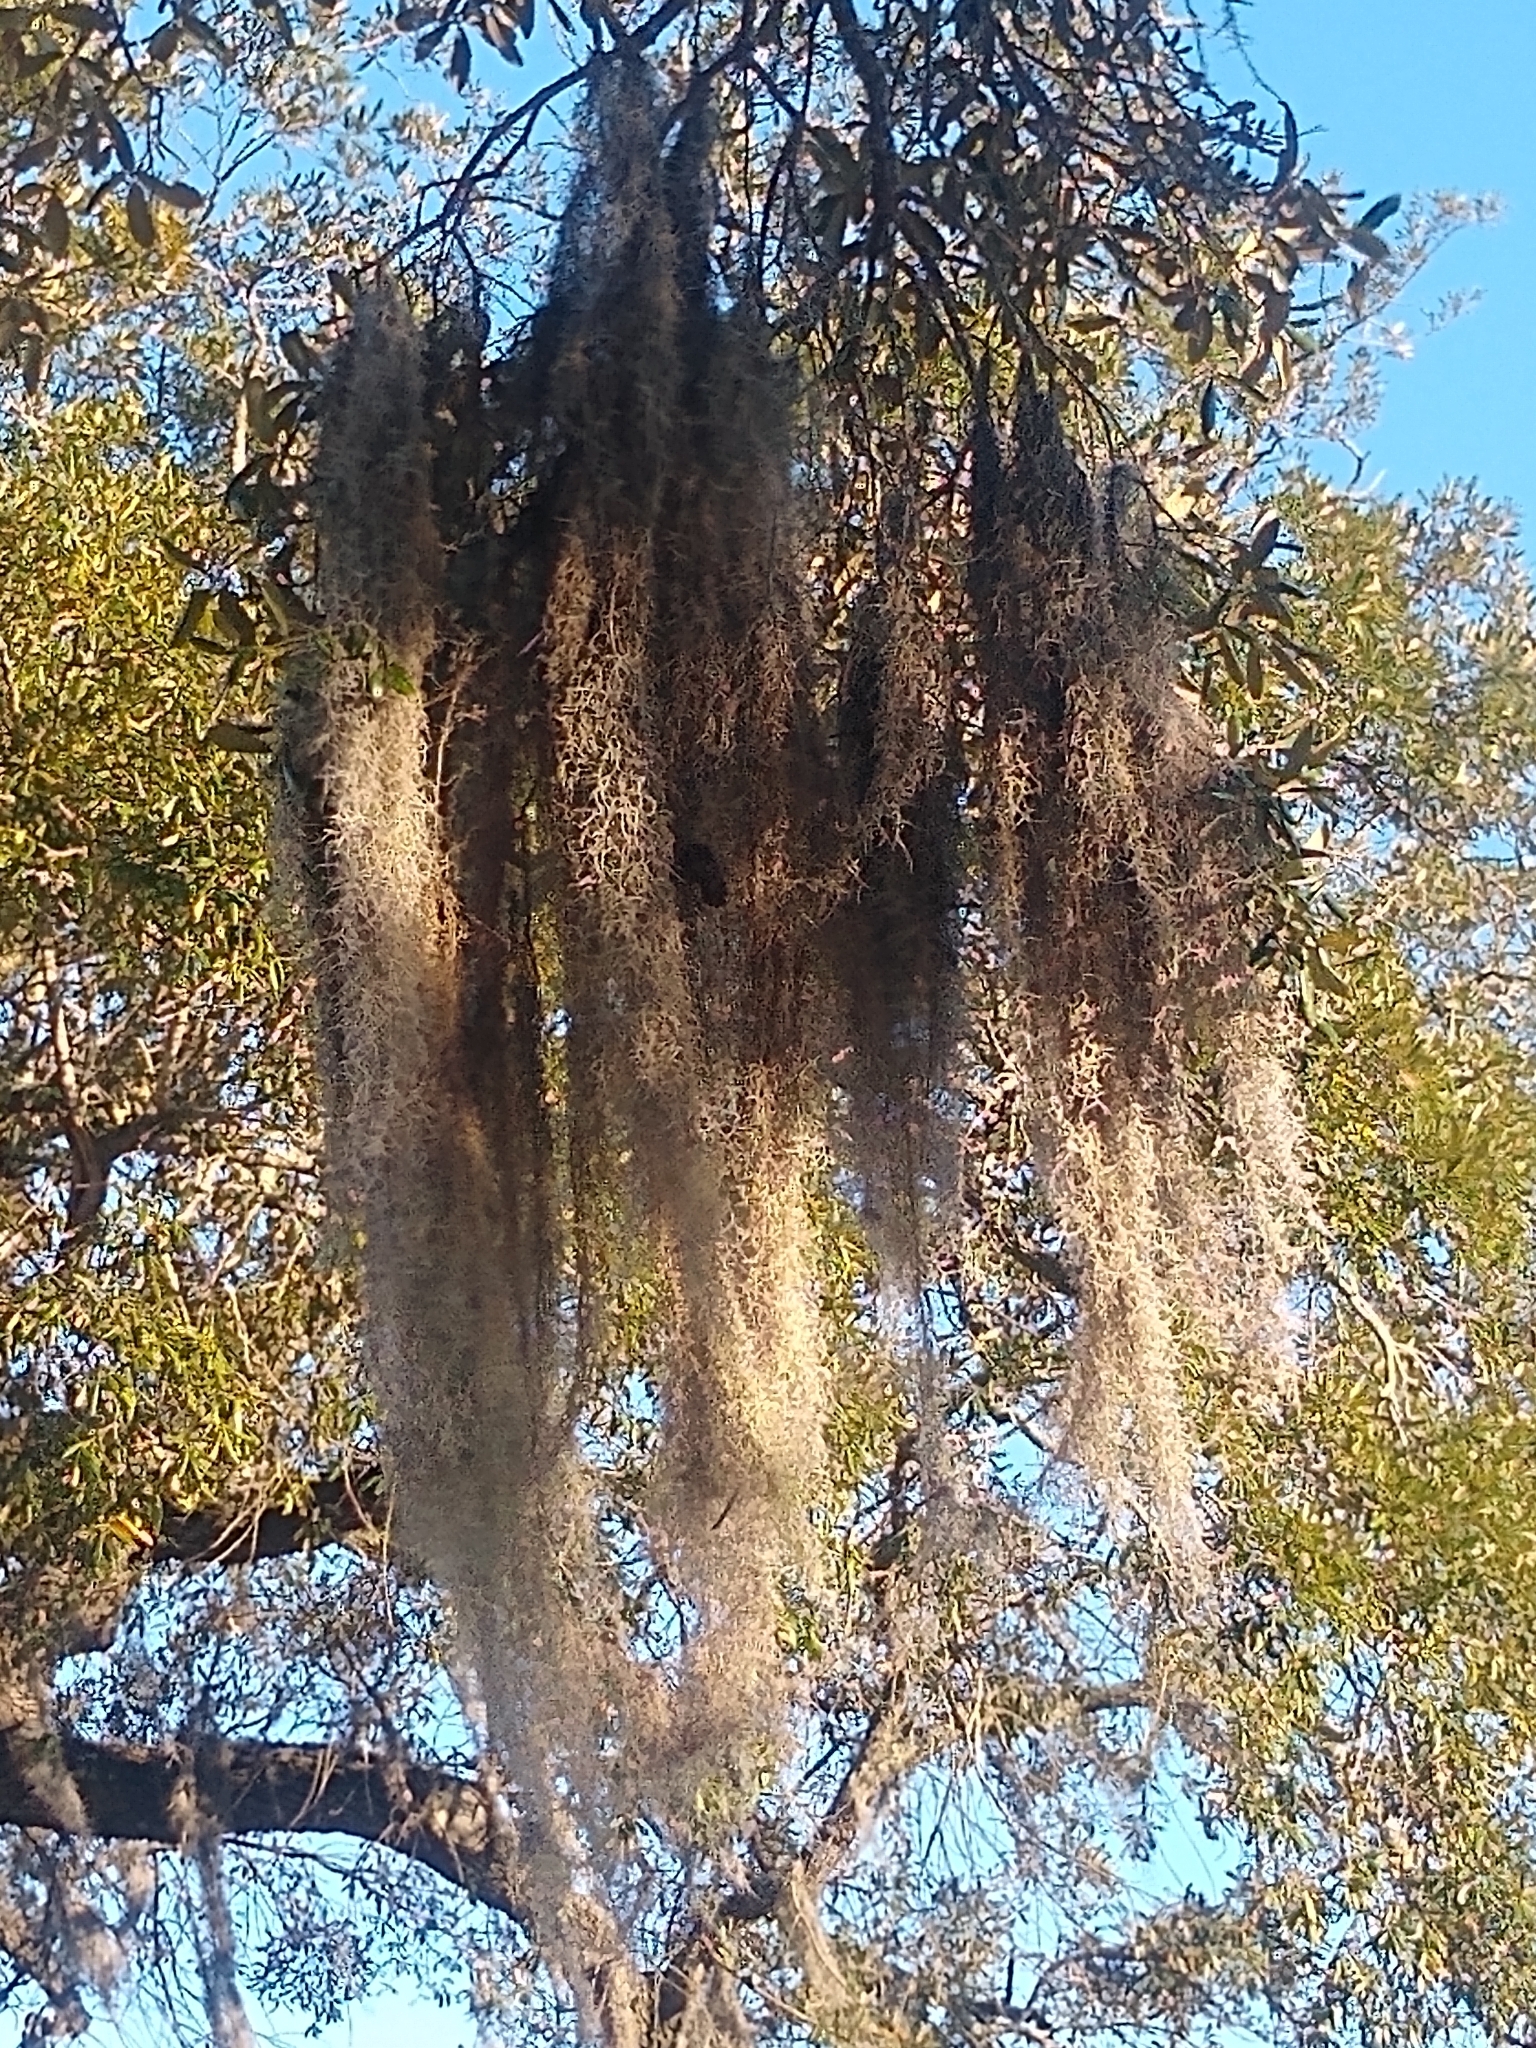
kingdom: Plantae
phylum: Tracheophyta
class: Liliopsida
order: Poales
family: Bromeliaceae
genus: Tillandsia
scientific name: Tillandsia usneoides
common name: Spanish moss
